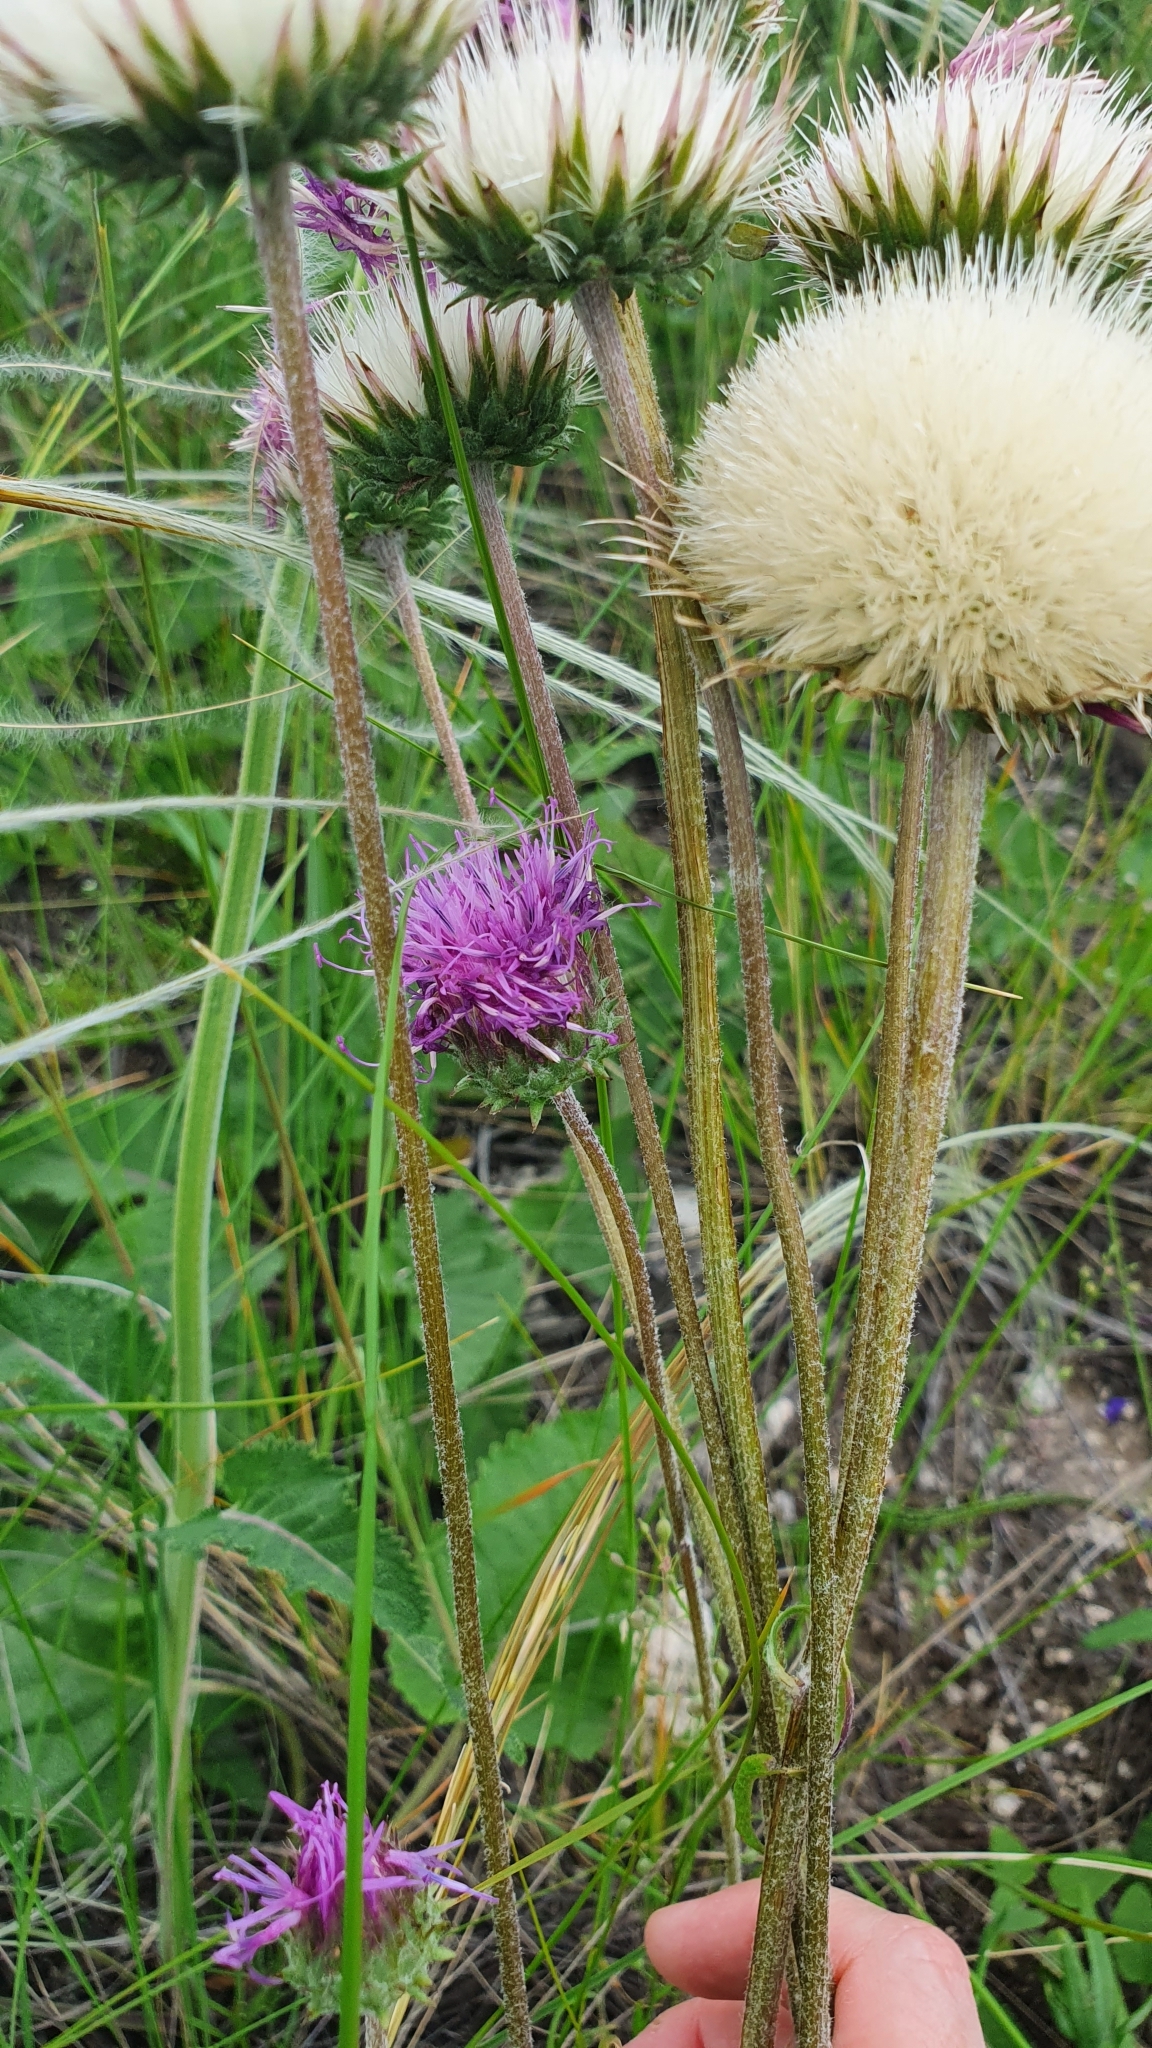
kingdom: Plantae
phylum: Tracheophyta
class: Magnoliopsida
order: Asterales
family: Asteraceae
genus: Jurinea
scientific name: Jurinea ledebourii
